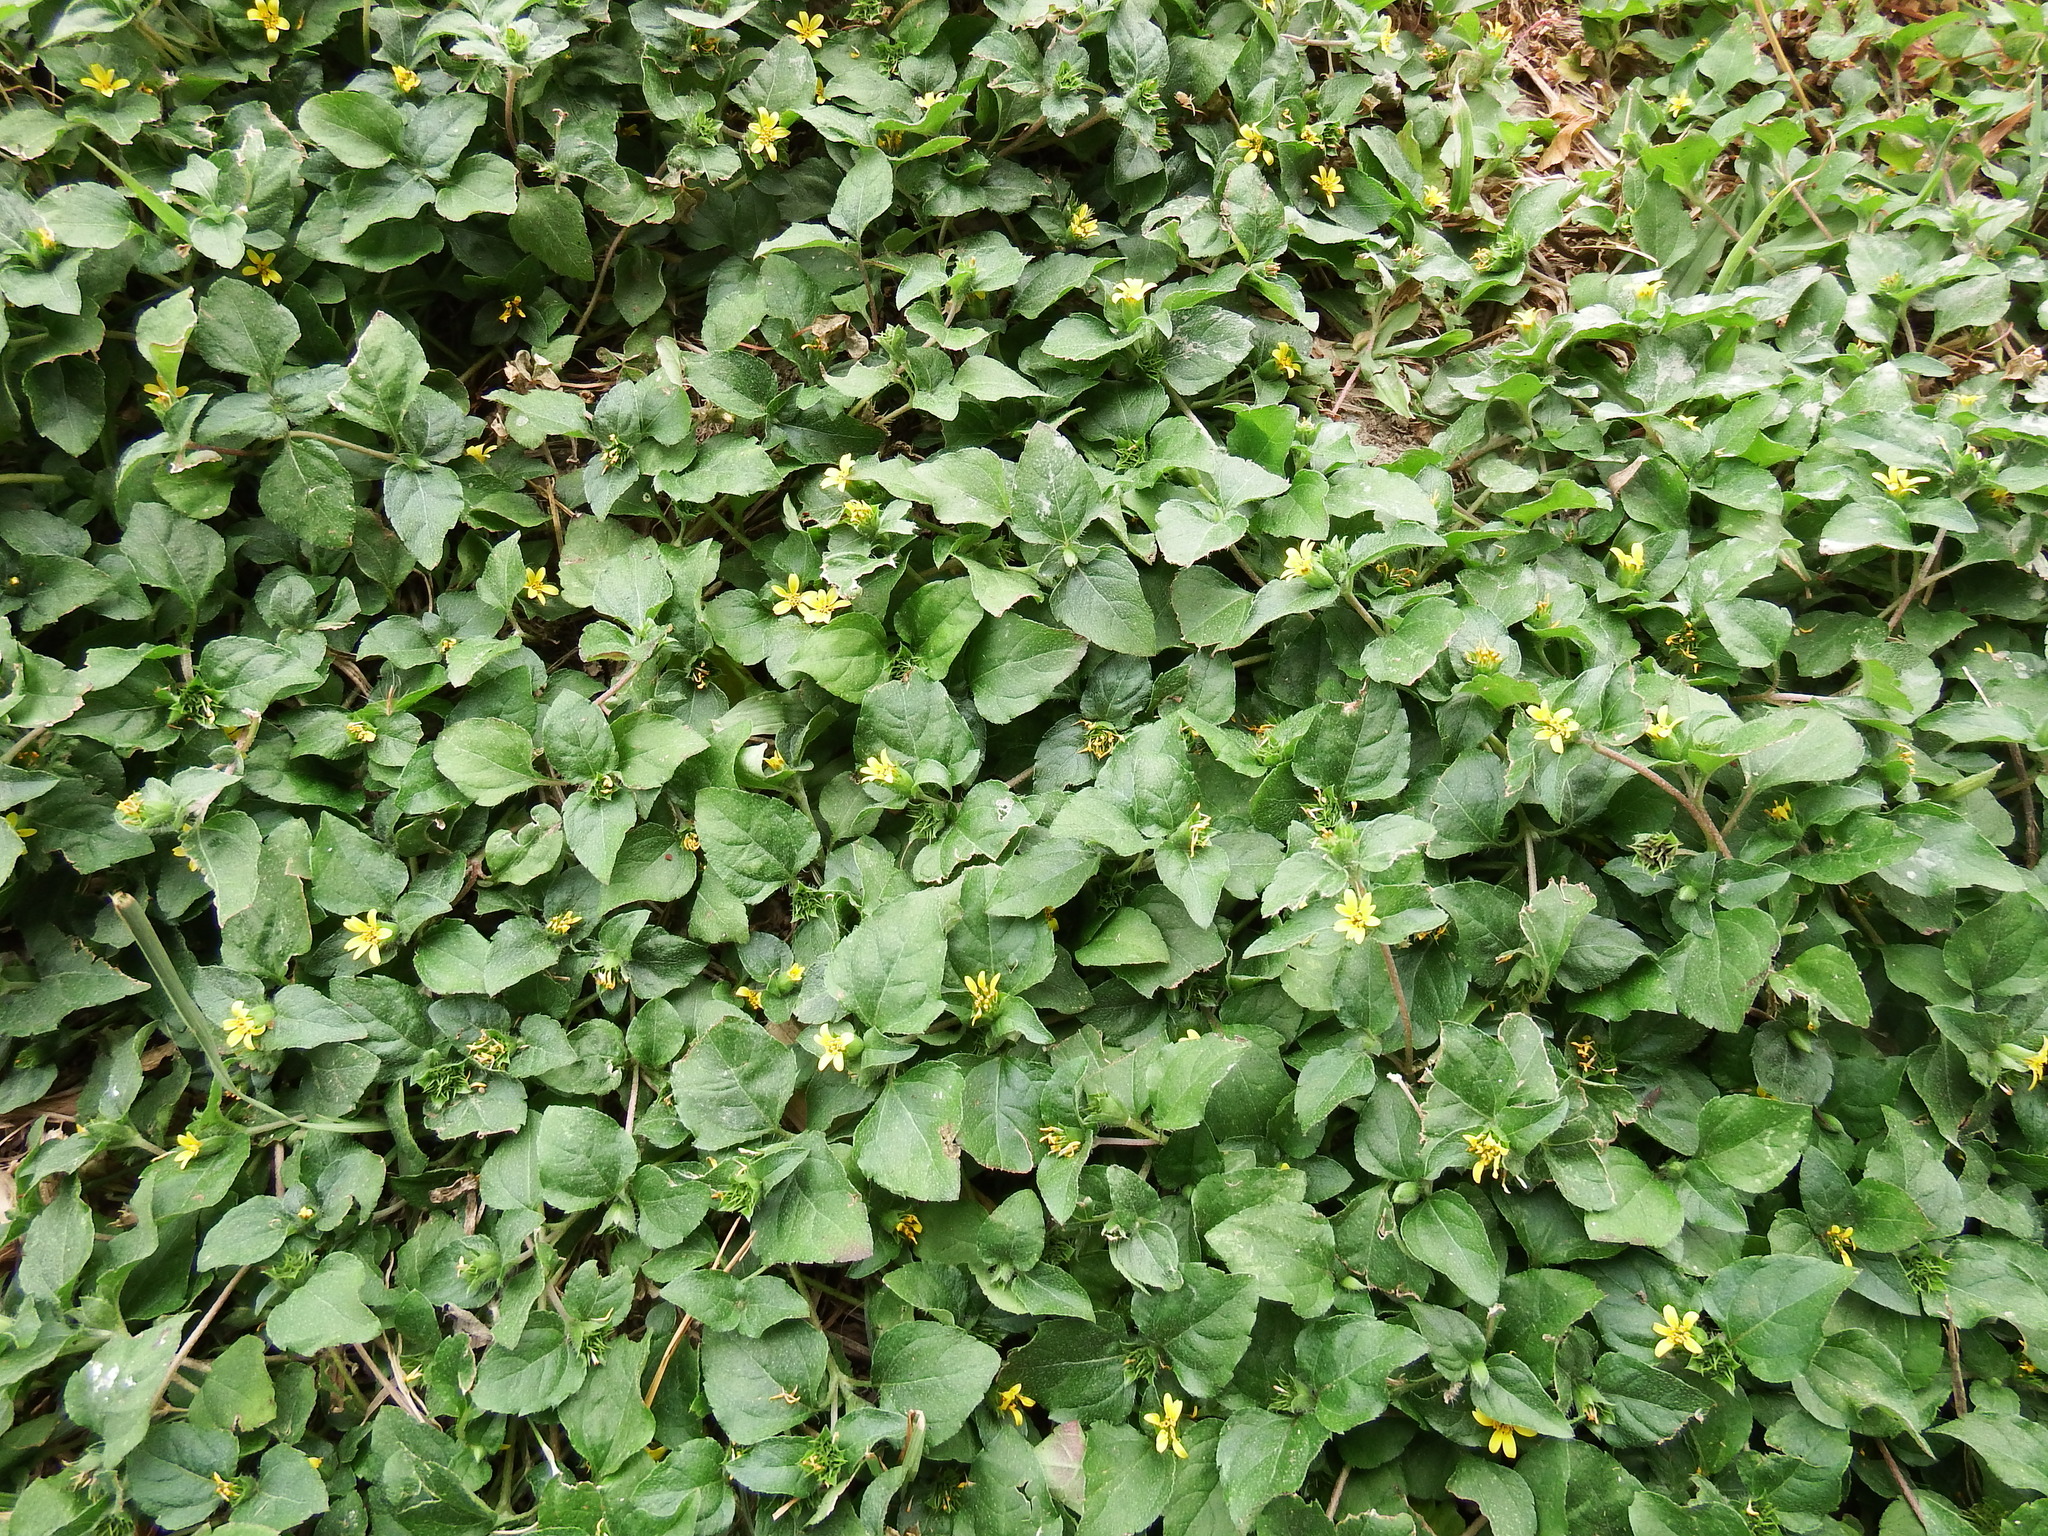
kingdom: Plantae
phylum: Tracheophyta
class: Magnoliopsida
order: Asterales
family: Asteraceae
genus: Calyptocarpus
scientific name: Calyptocarpus vialis
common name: Straggler daisy
